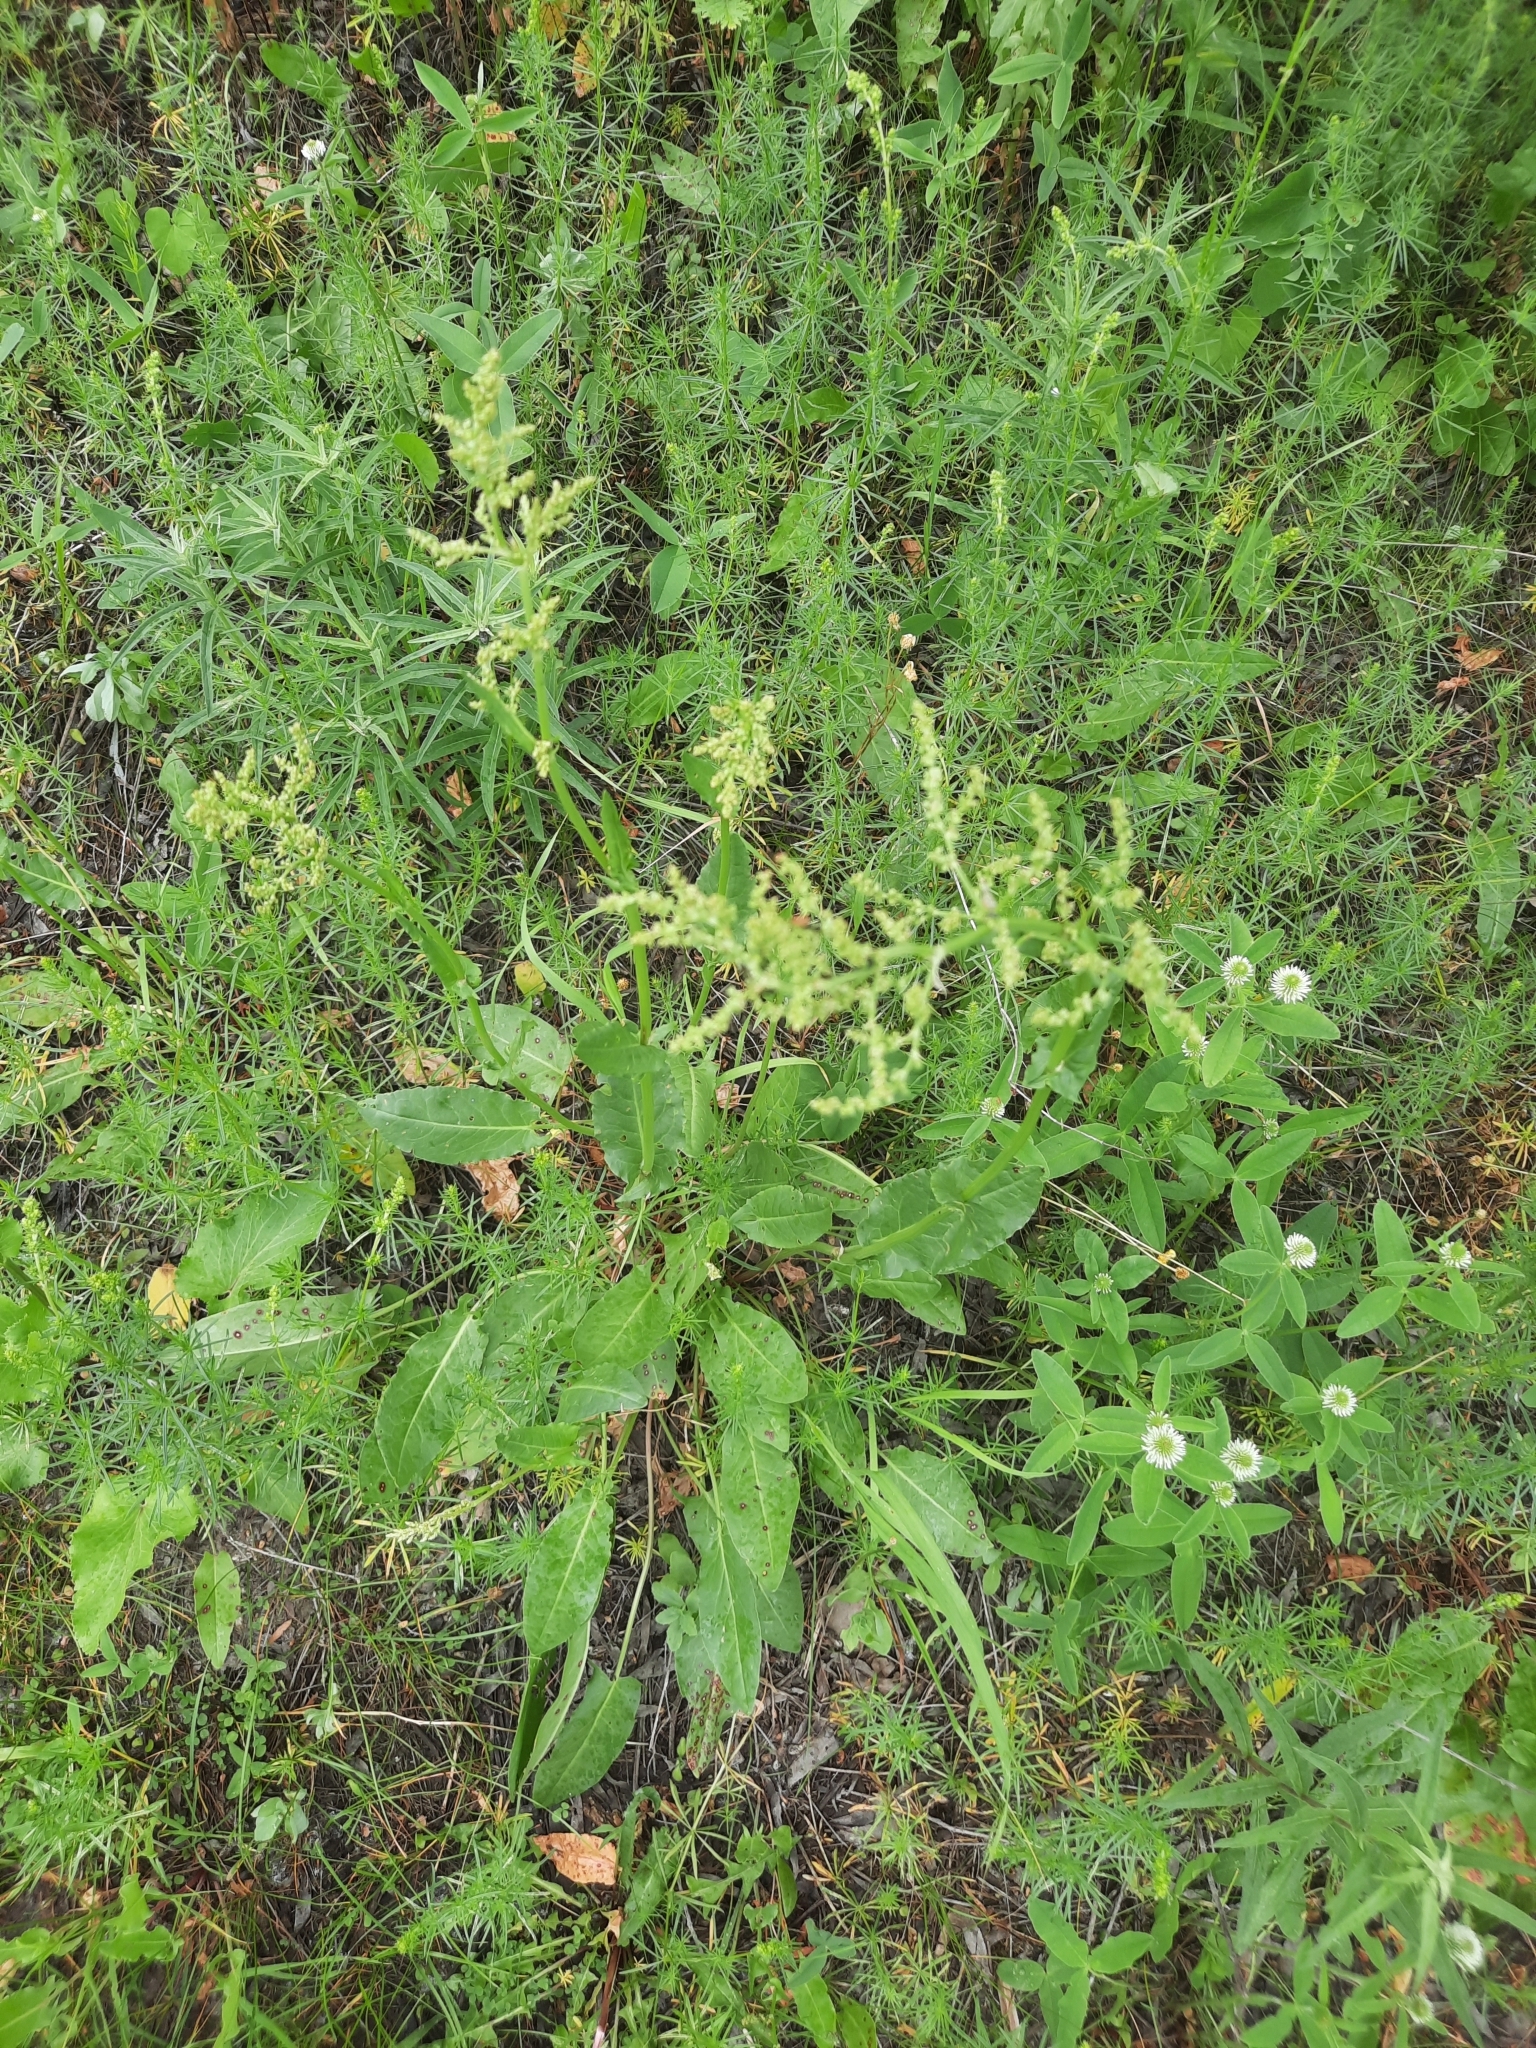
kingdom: Plantae
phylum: Tracheophyta
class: Magnoliopsida
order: Caryophyllales
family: Polygonaceae
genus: Rumex
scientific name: Rumex crispus
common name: Curled dock
